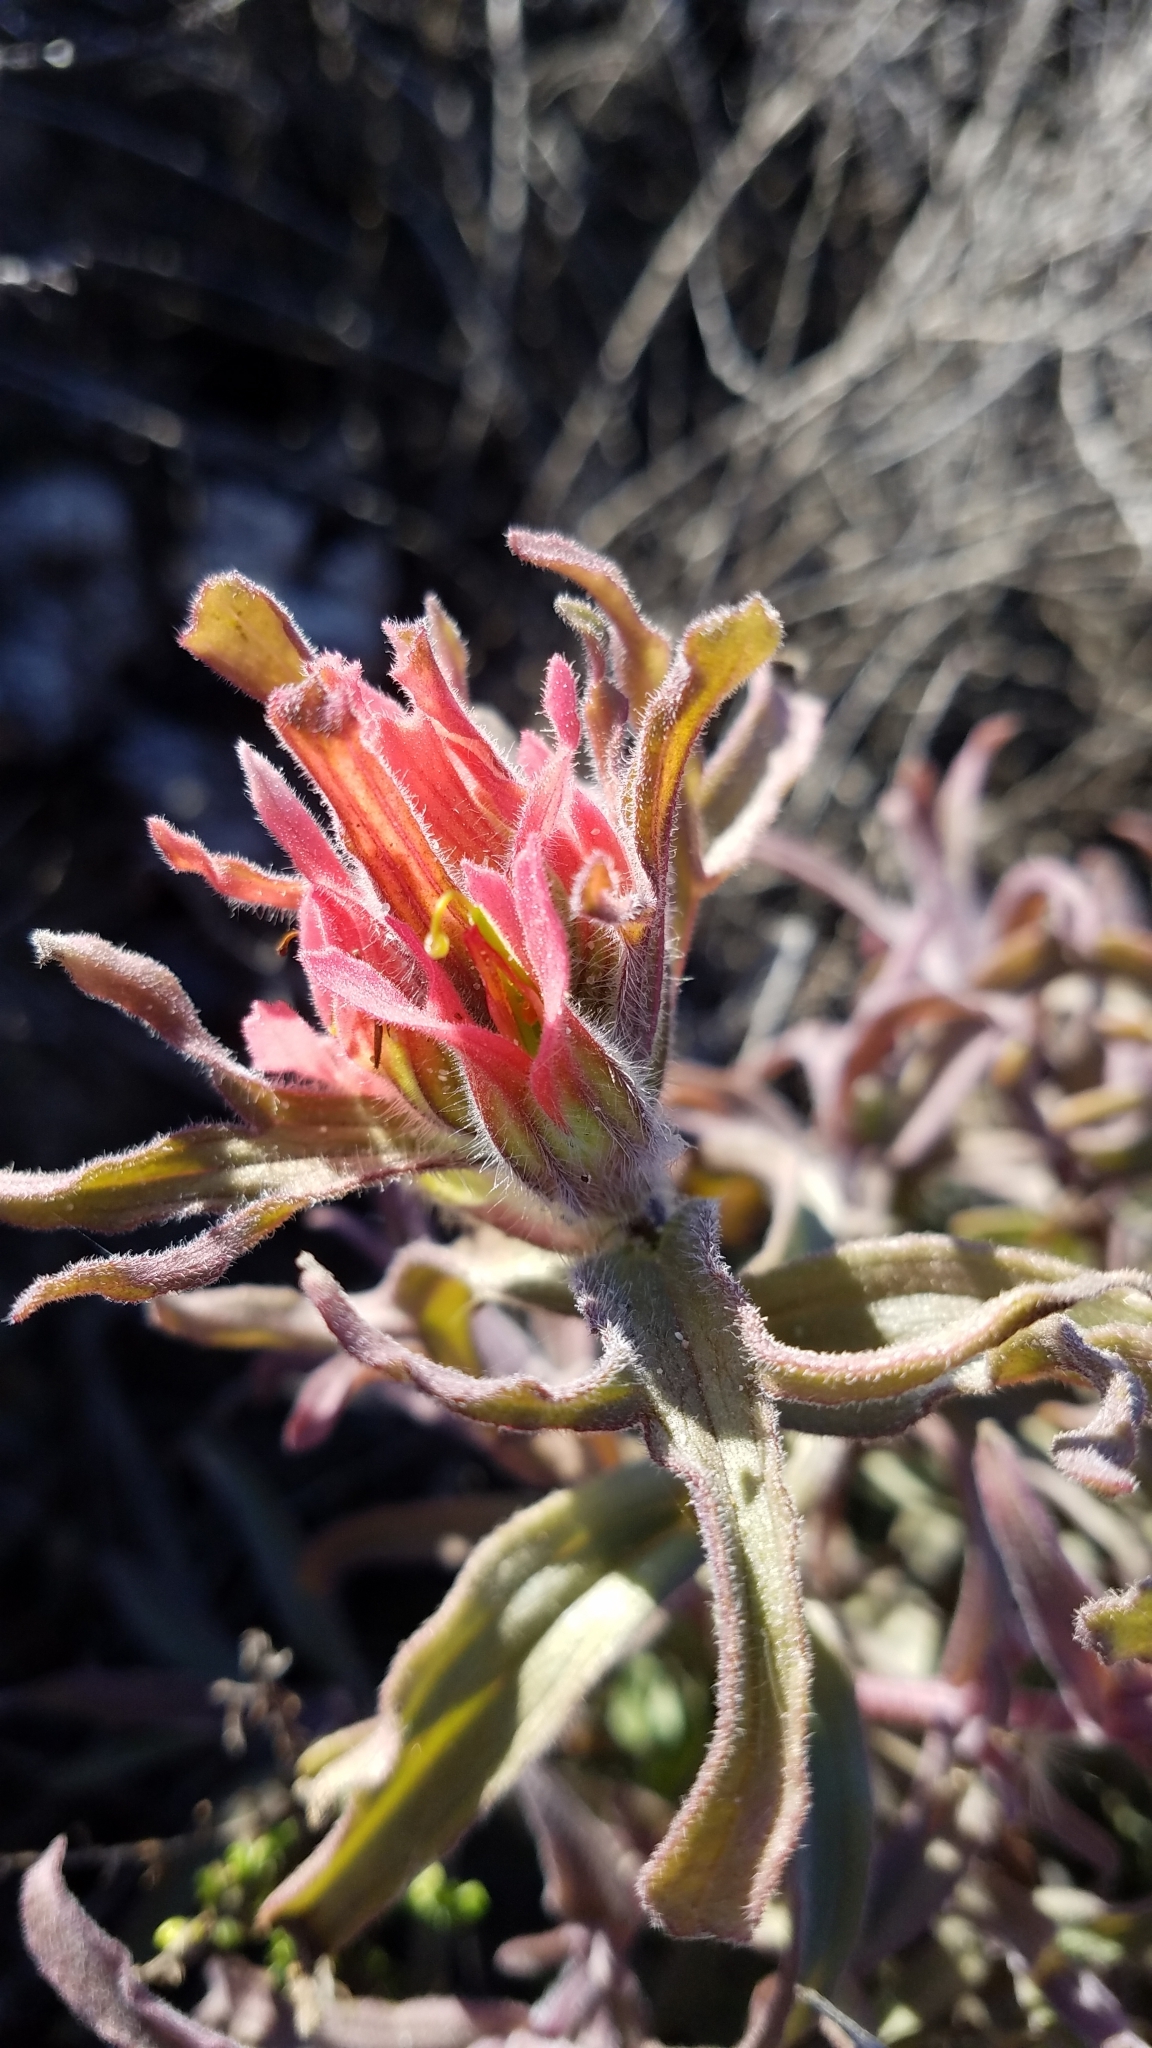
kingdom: Plantae
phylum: Tracheophyta
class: Magnoliopsida
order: Lamiales
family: Orobanchaceae
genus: Castilleja
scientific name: Castilleja affinis
